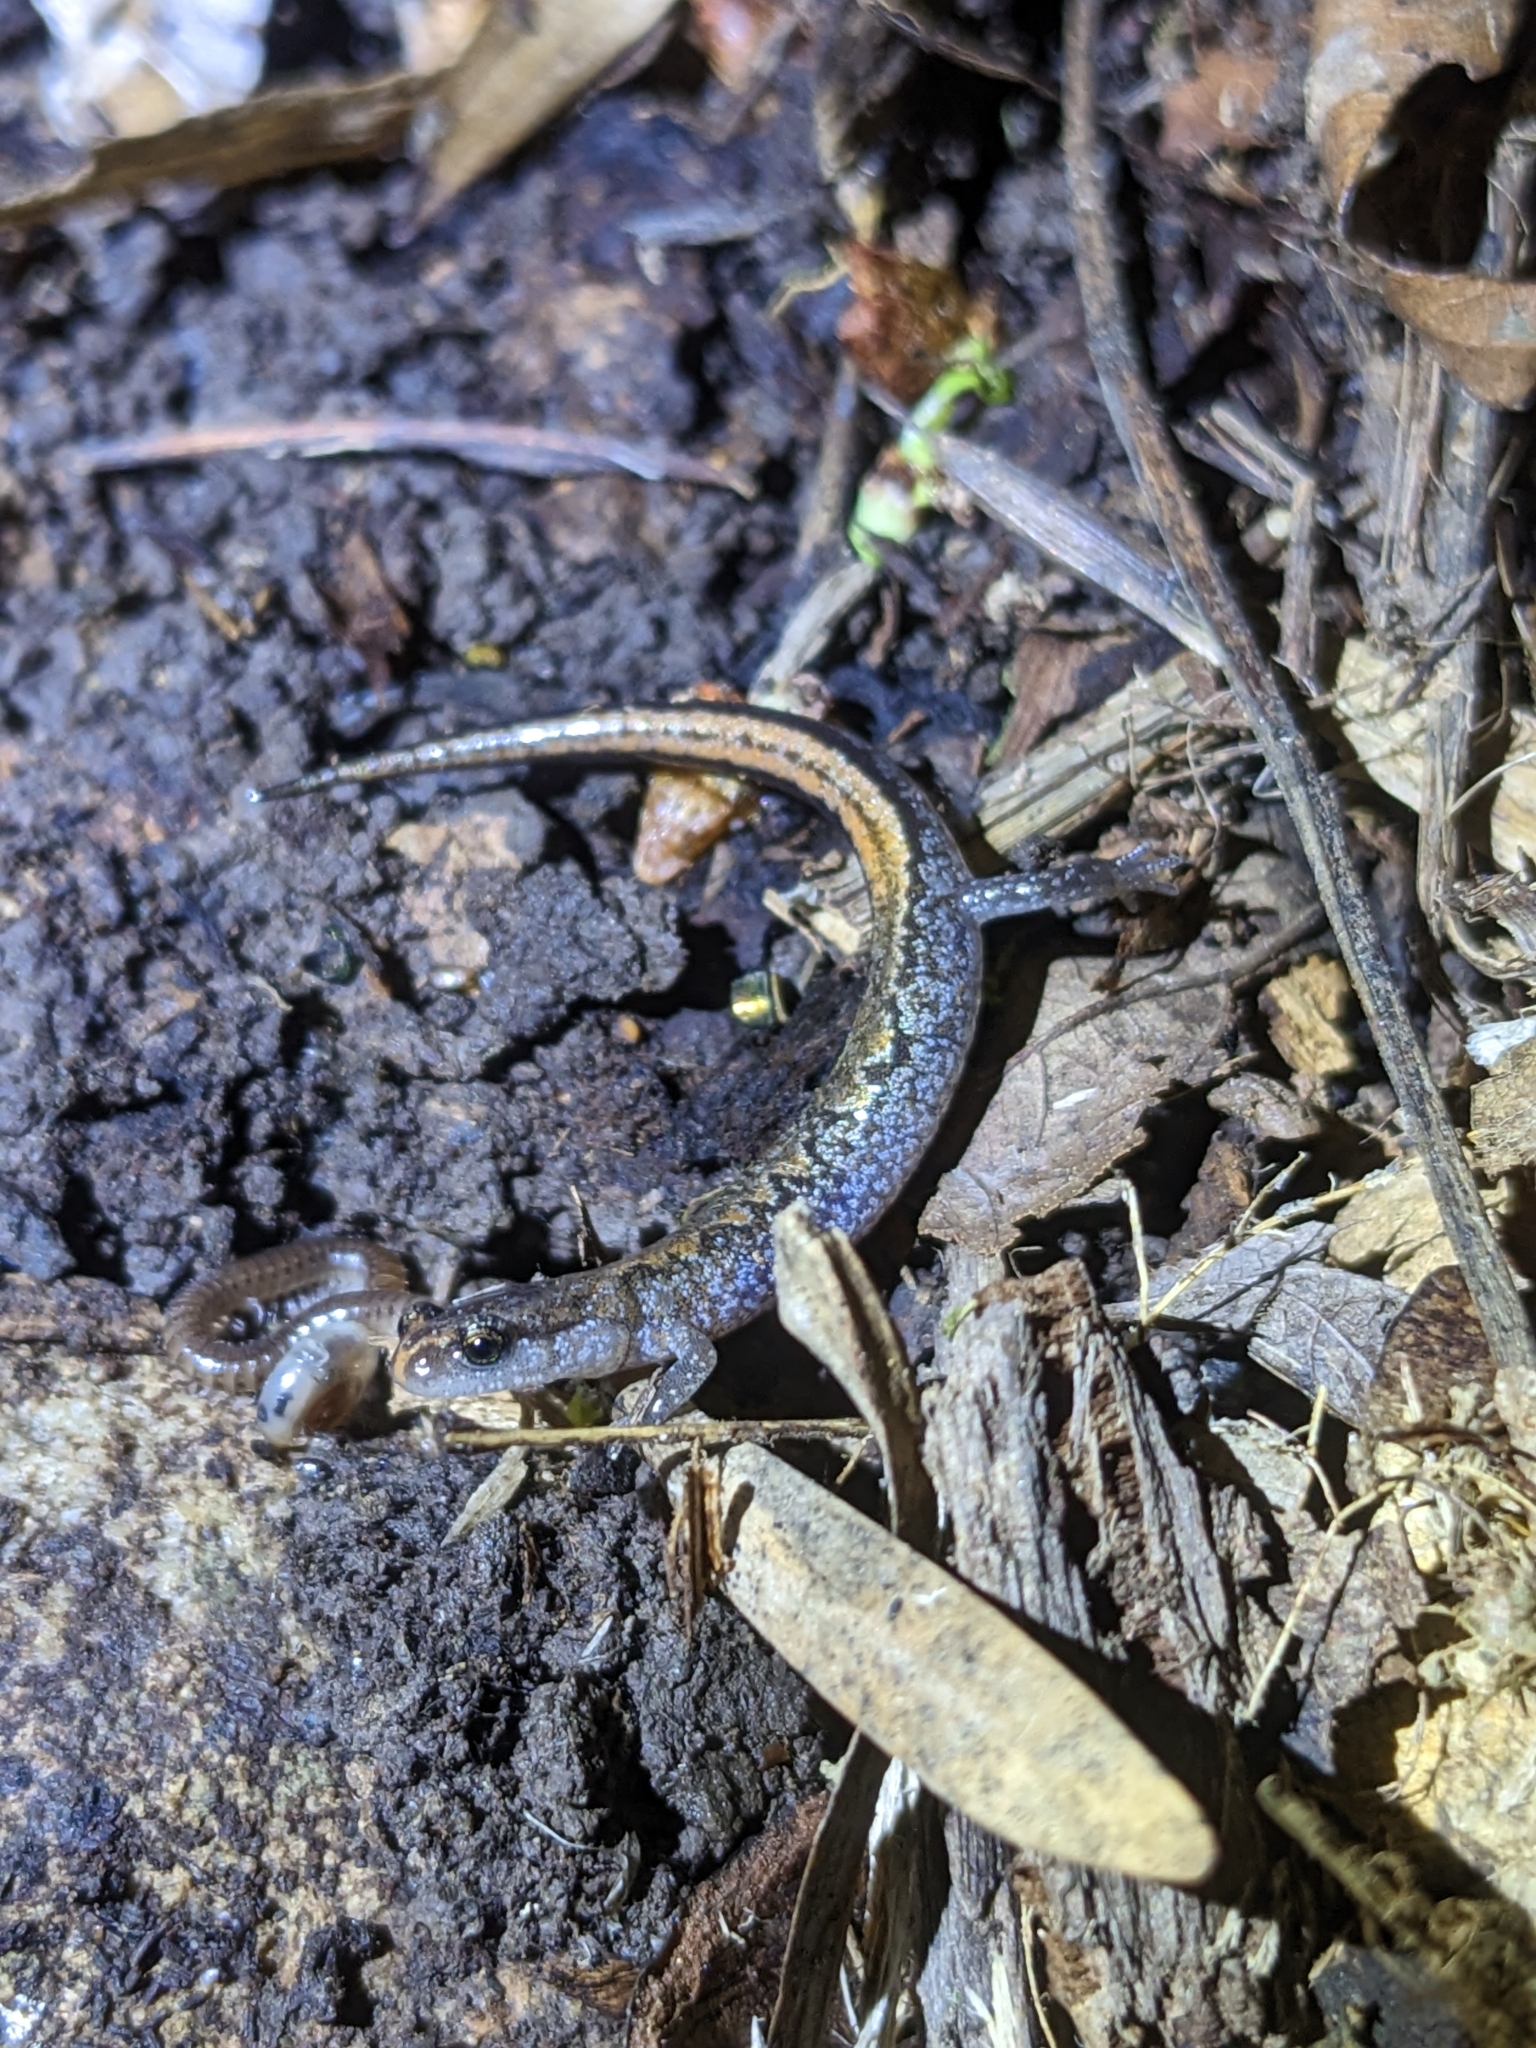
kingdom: Animalia
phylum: Chordata
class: Amphibia
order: Caudata
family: Plethodontidae
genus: Plethodon
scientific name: Plethodon dorsalis
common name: Northern zigzag salamander
